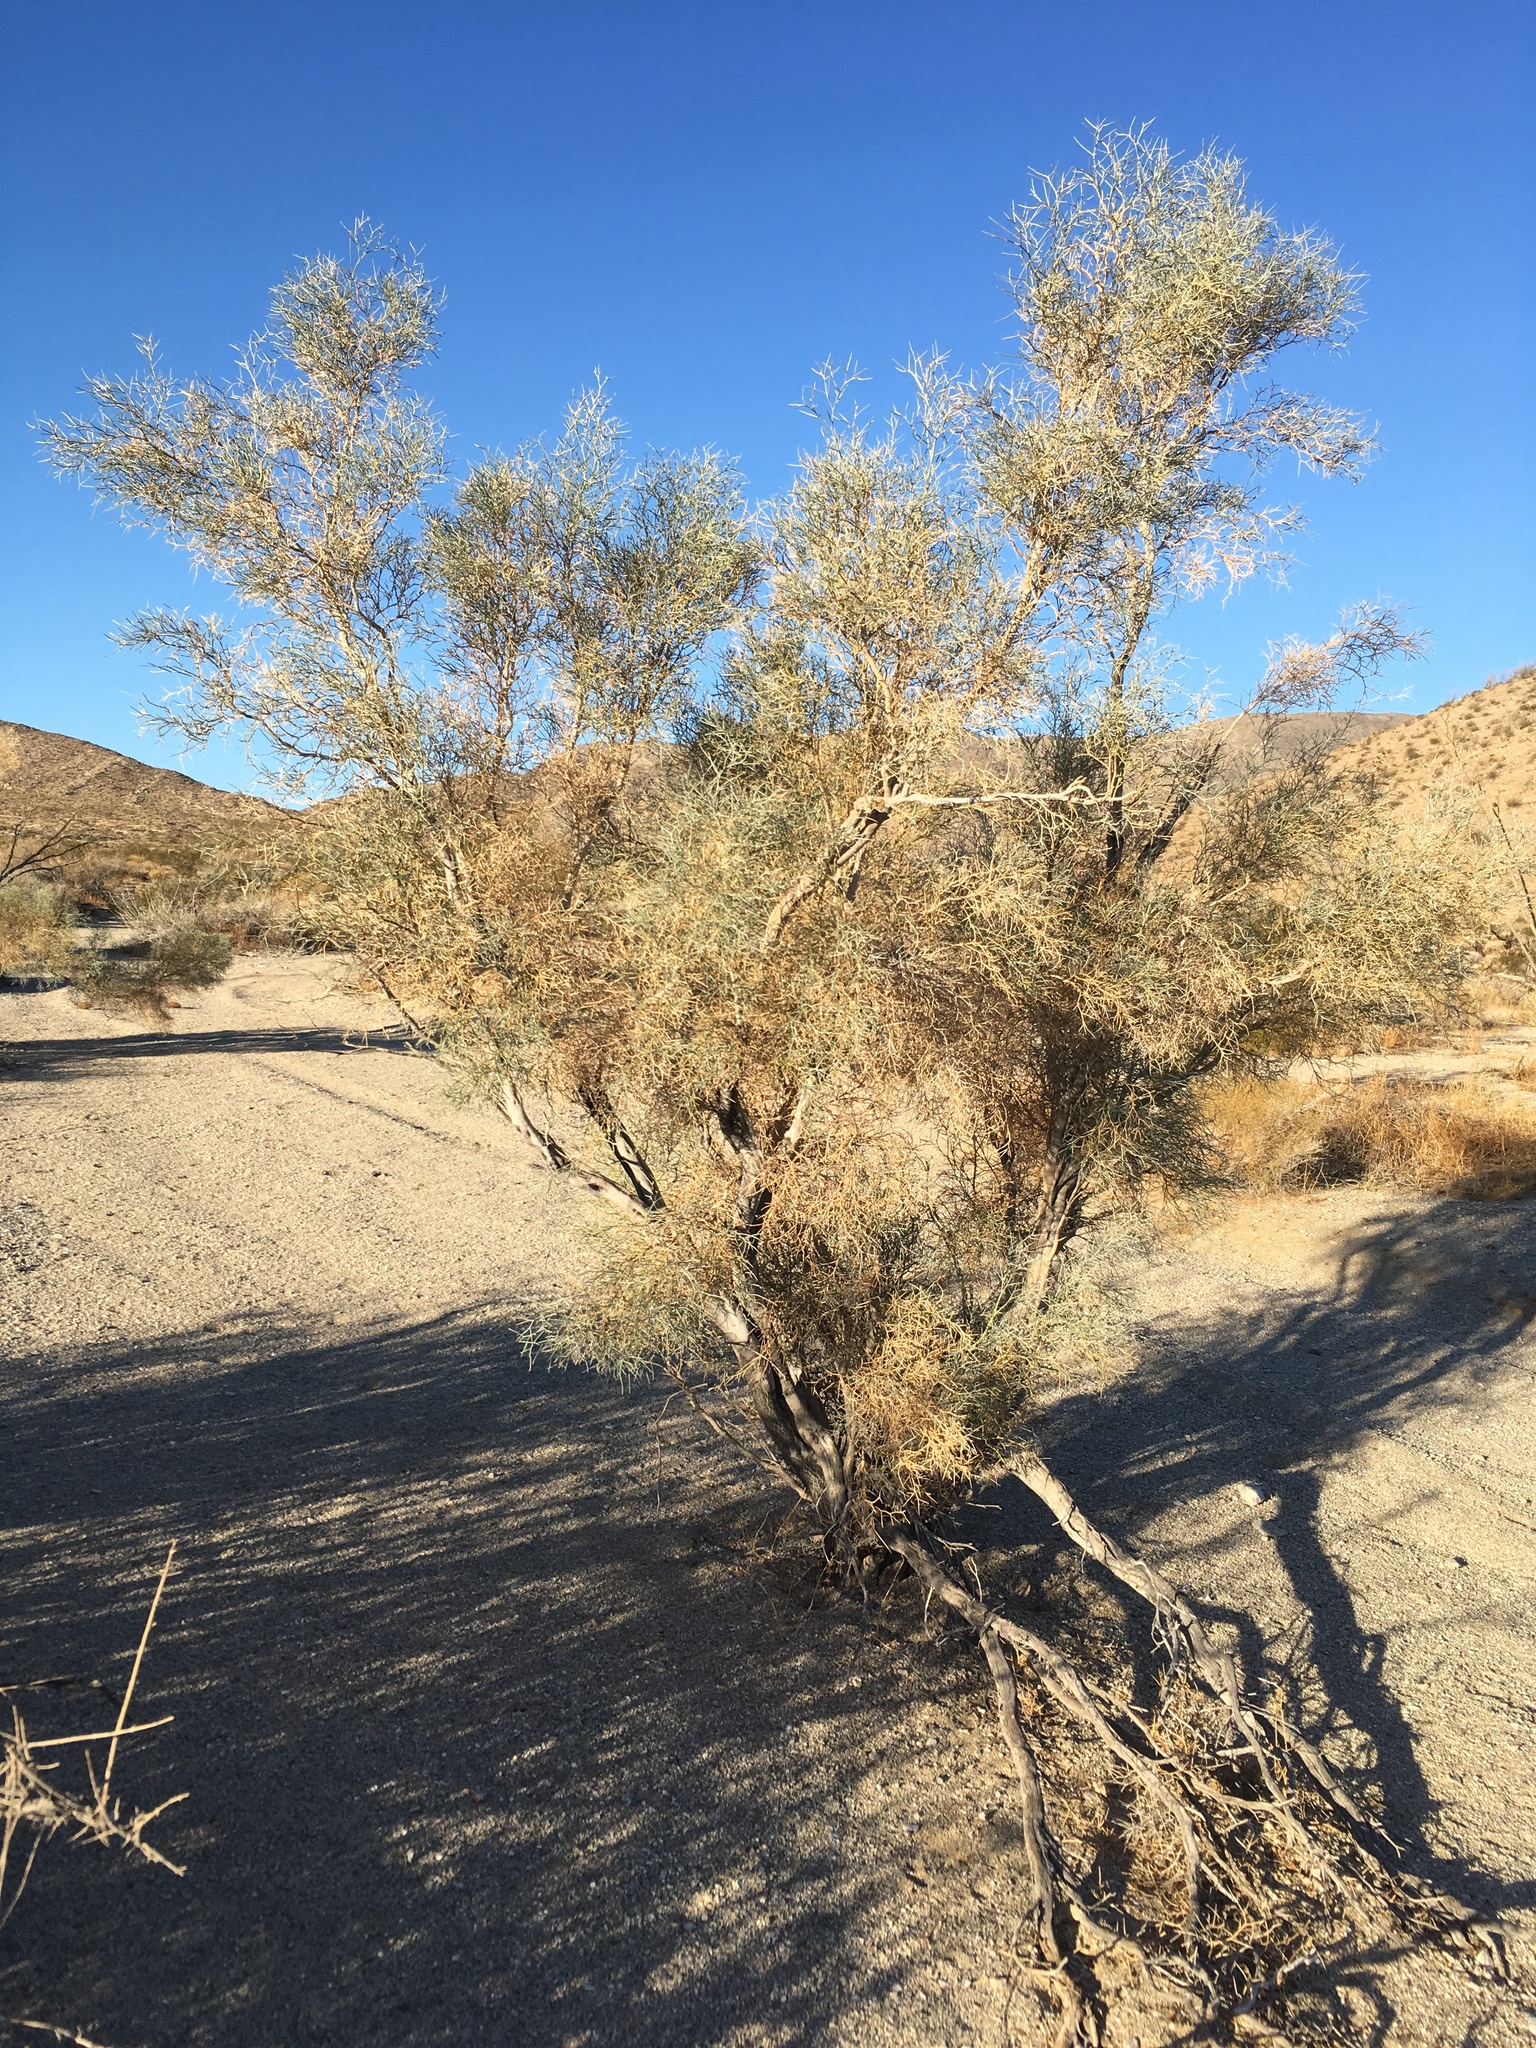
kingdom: Plantae
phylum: Tracheophyta
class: Magnoliopsida
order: Fabales
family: Fabaceae
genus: Psorothamnus
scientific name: Psorothamnus spinosus
